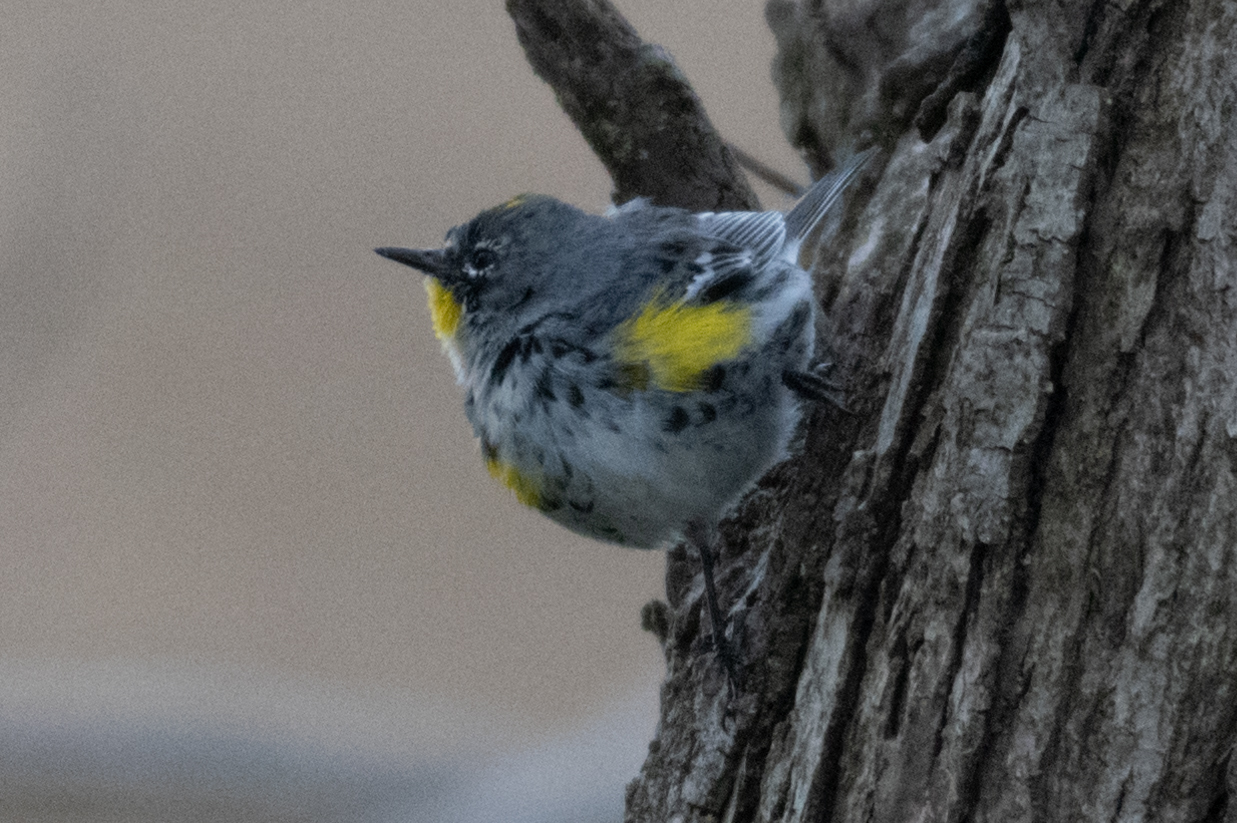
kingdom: Animalia
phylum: Chordata
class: Aves
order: Passeriformes
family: Parulidae
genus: Setophaga
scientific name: Setophaga auduboni
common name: Audubon's warbler
